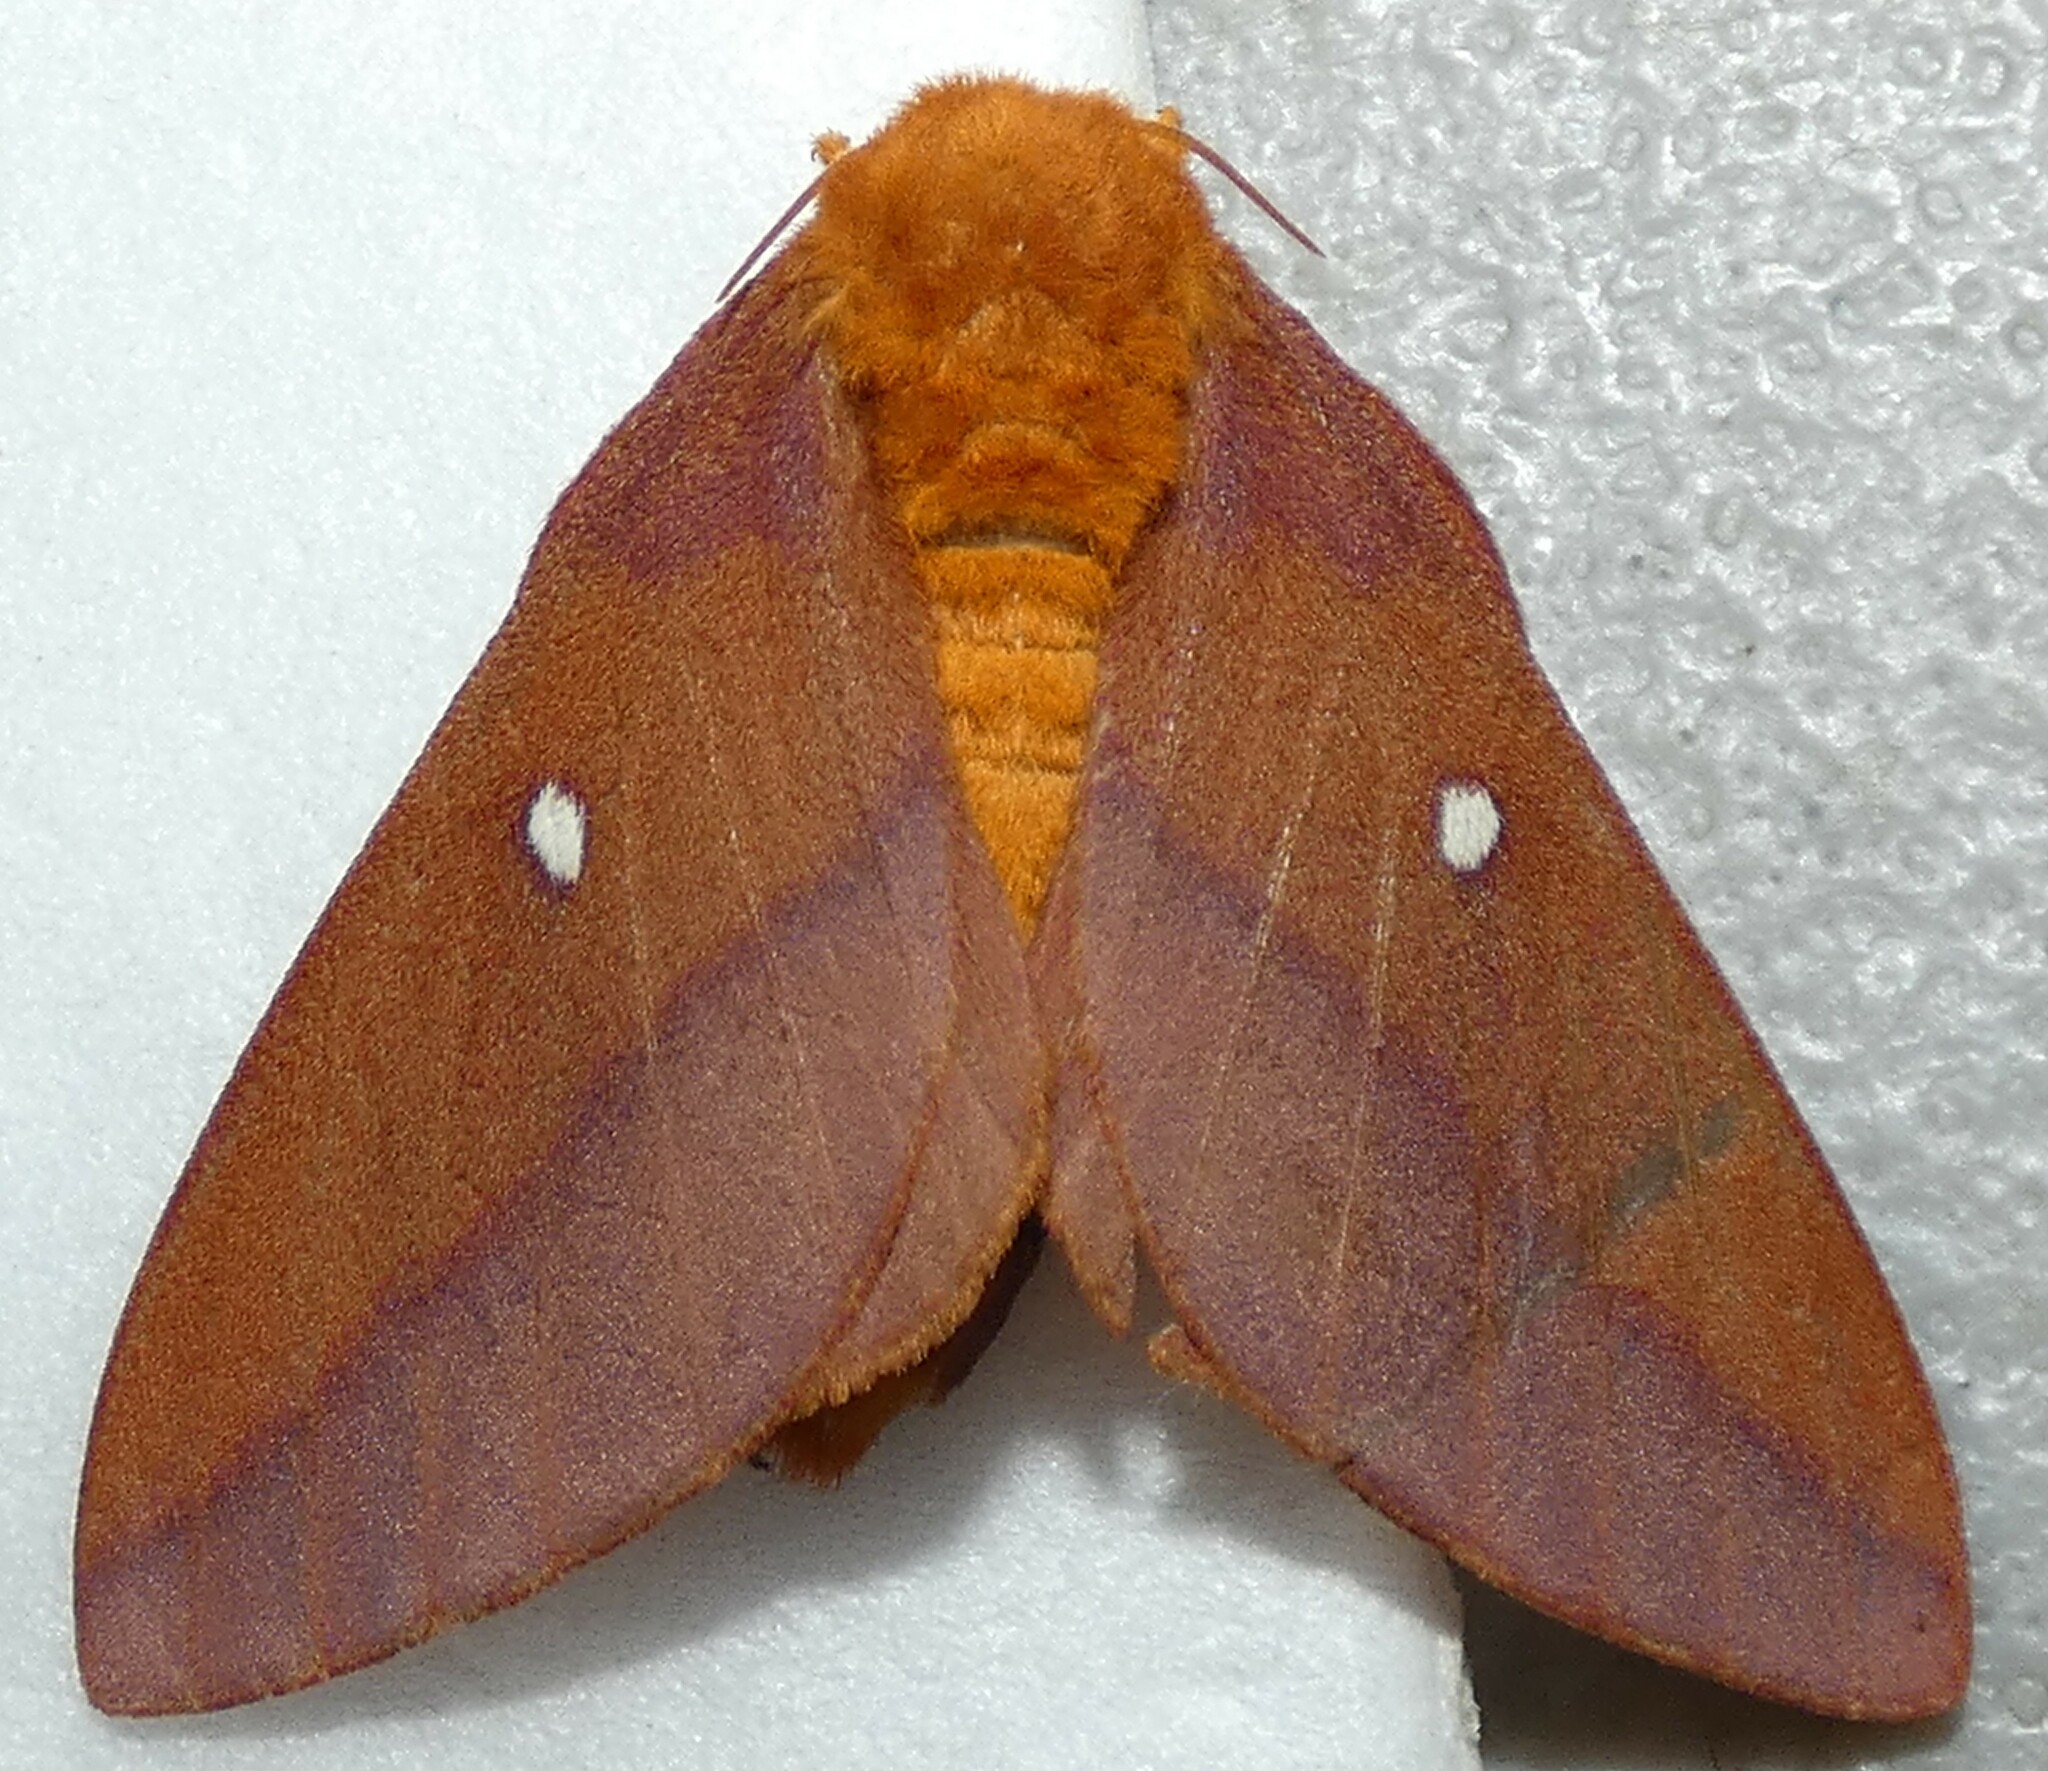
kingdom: Animalia
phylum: Arthropoda
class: Insecta
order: Lepidoptera
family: Saturniidae
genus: Anisota
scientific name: Anisota virginiensis
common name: Pink striped oakworm moth
